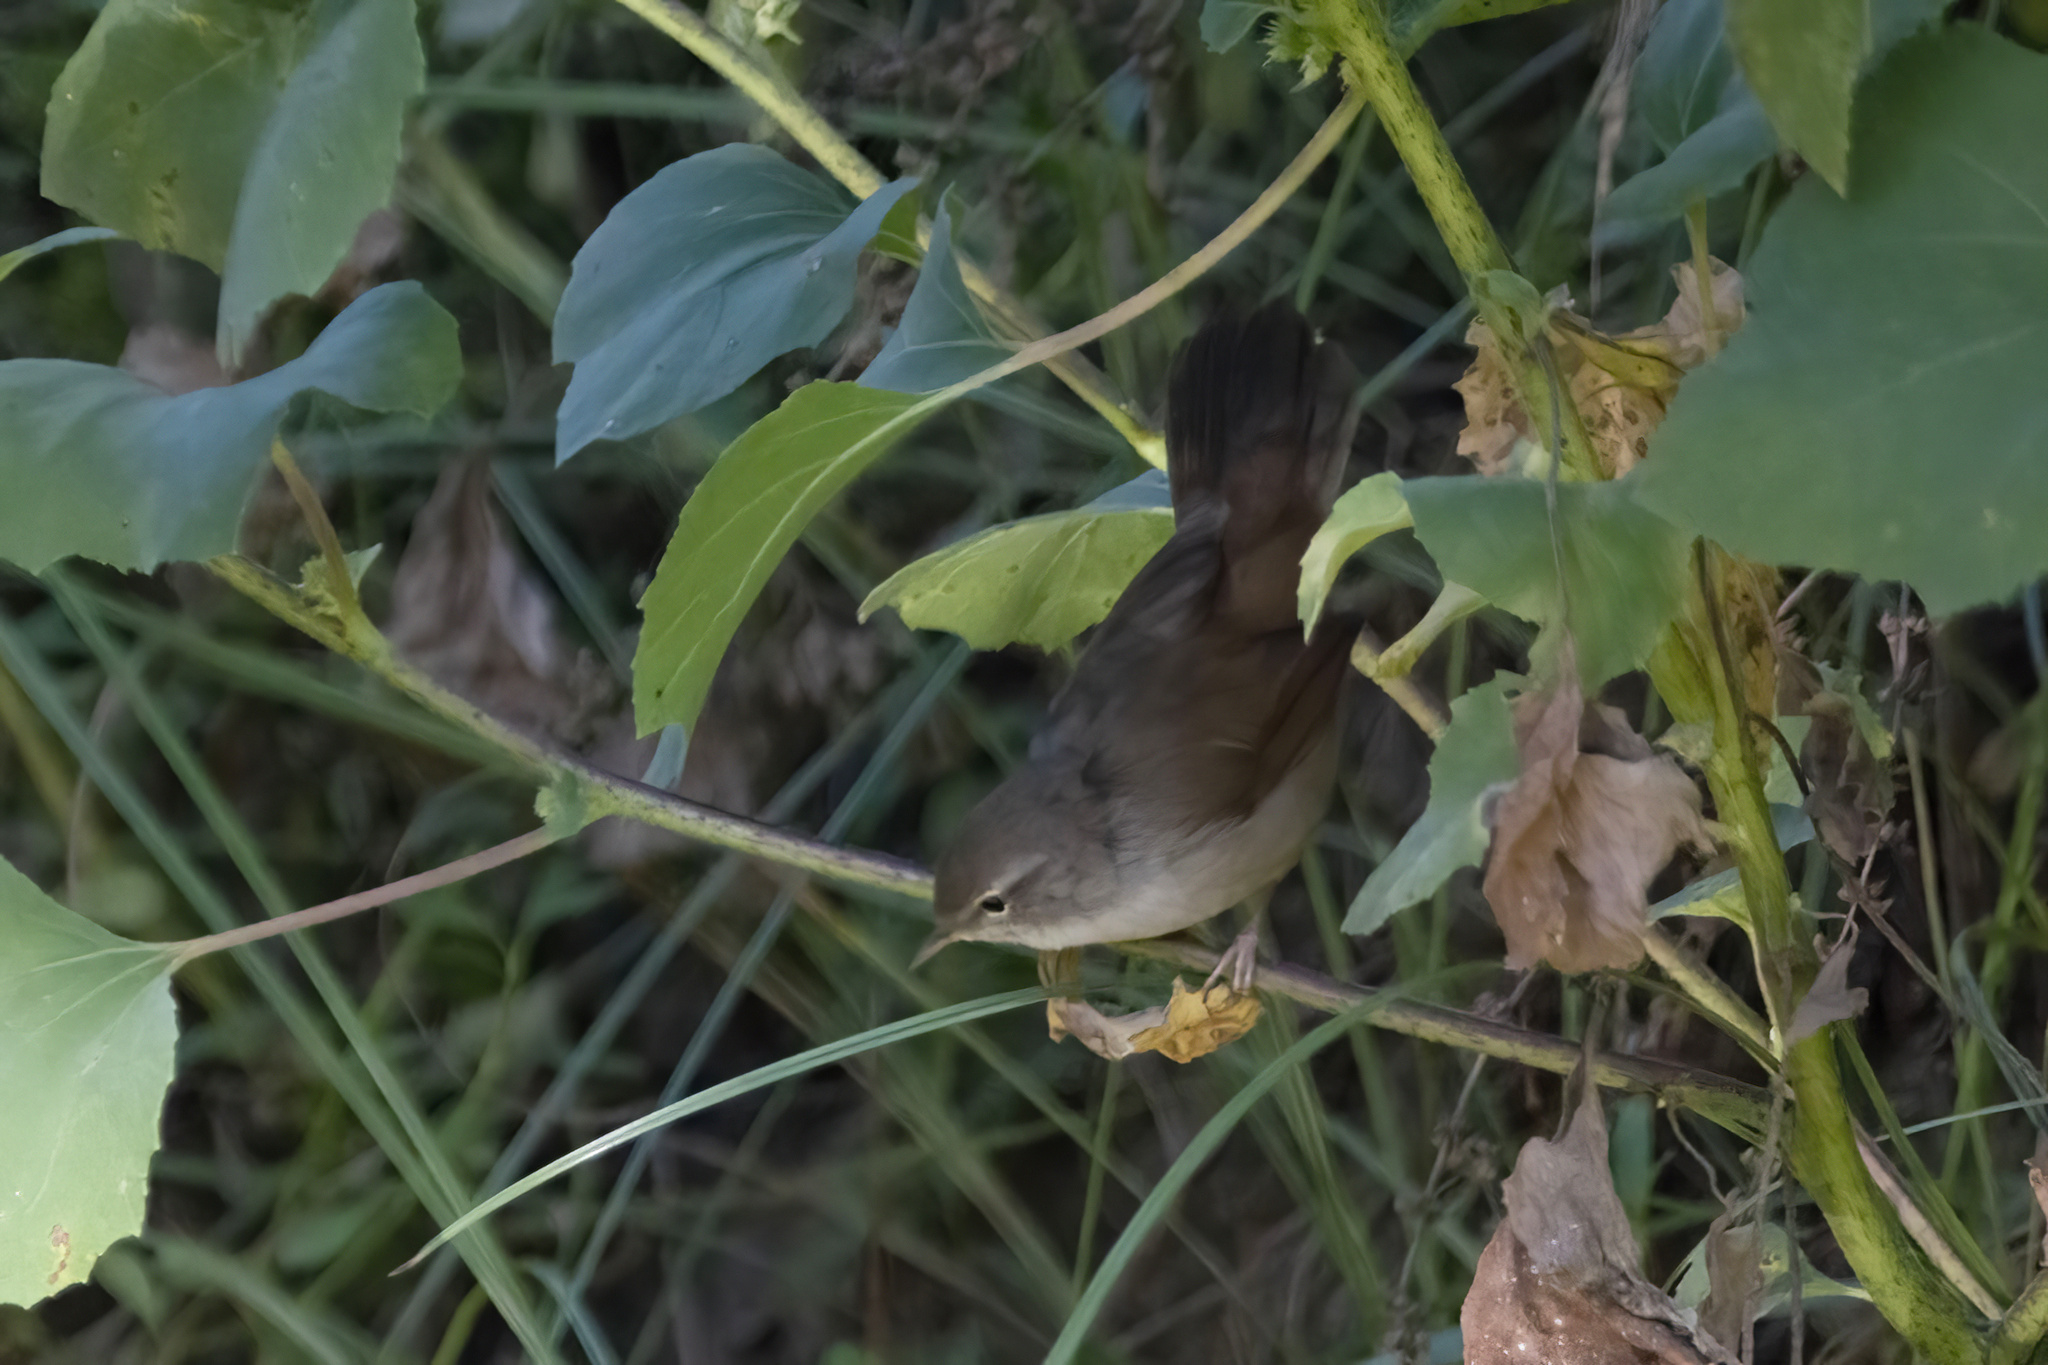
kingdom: Animalia
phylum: Chordata
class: Aves
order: Passeriformes
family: Cettiidae
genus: Cettia
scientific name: Cettia cetti
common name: Cetti's warbler
